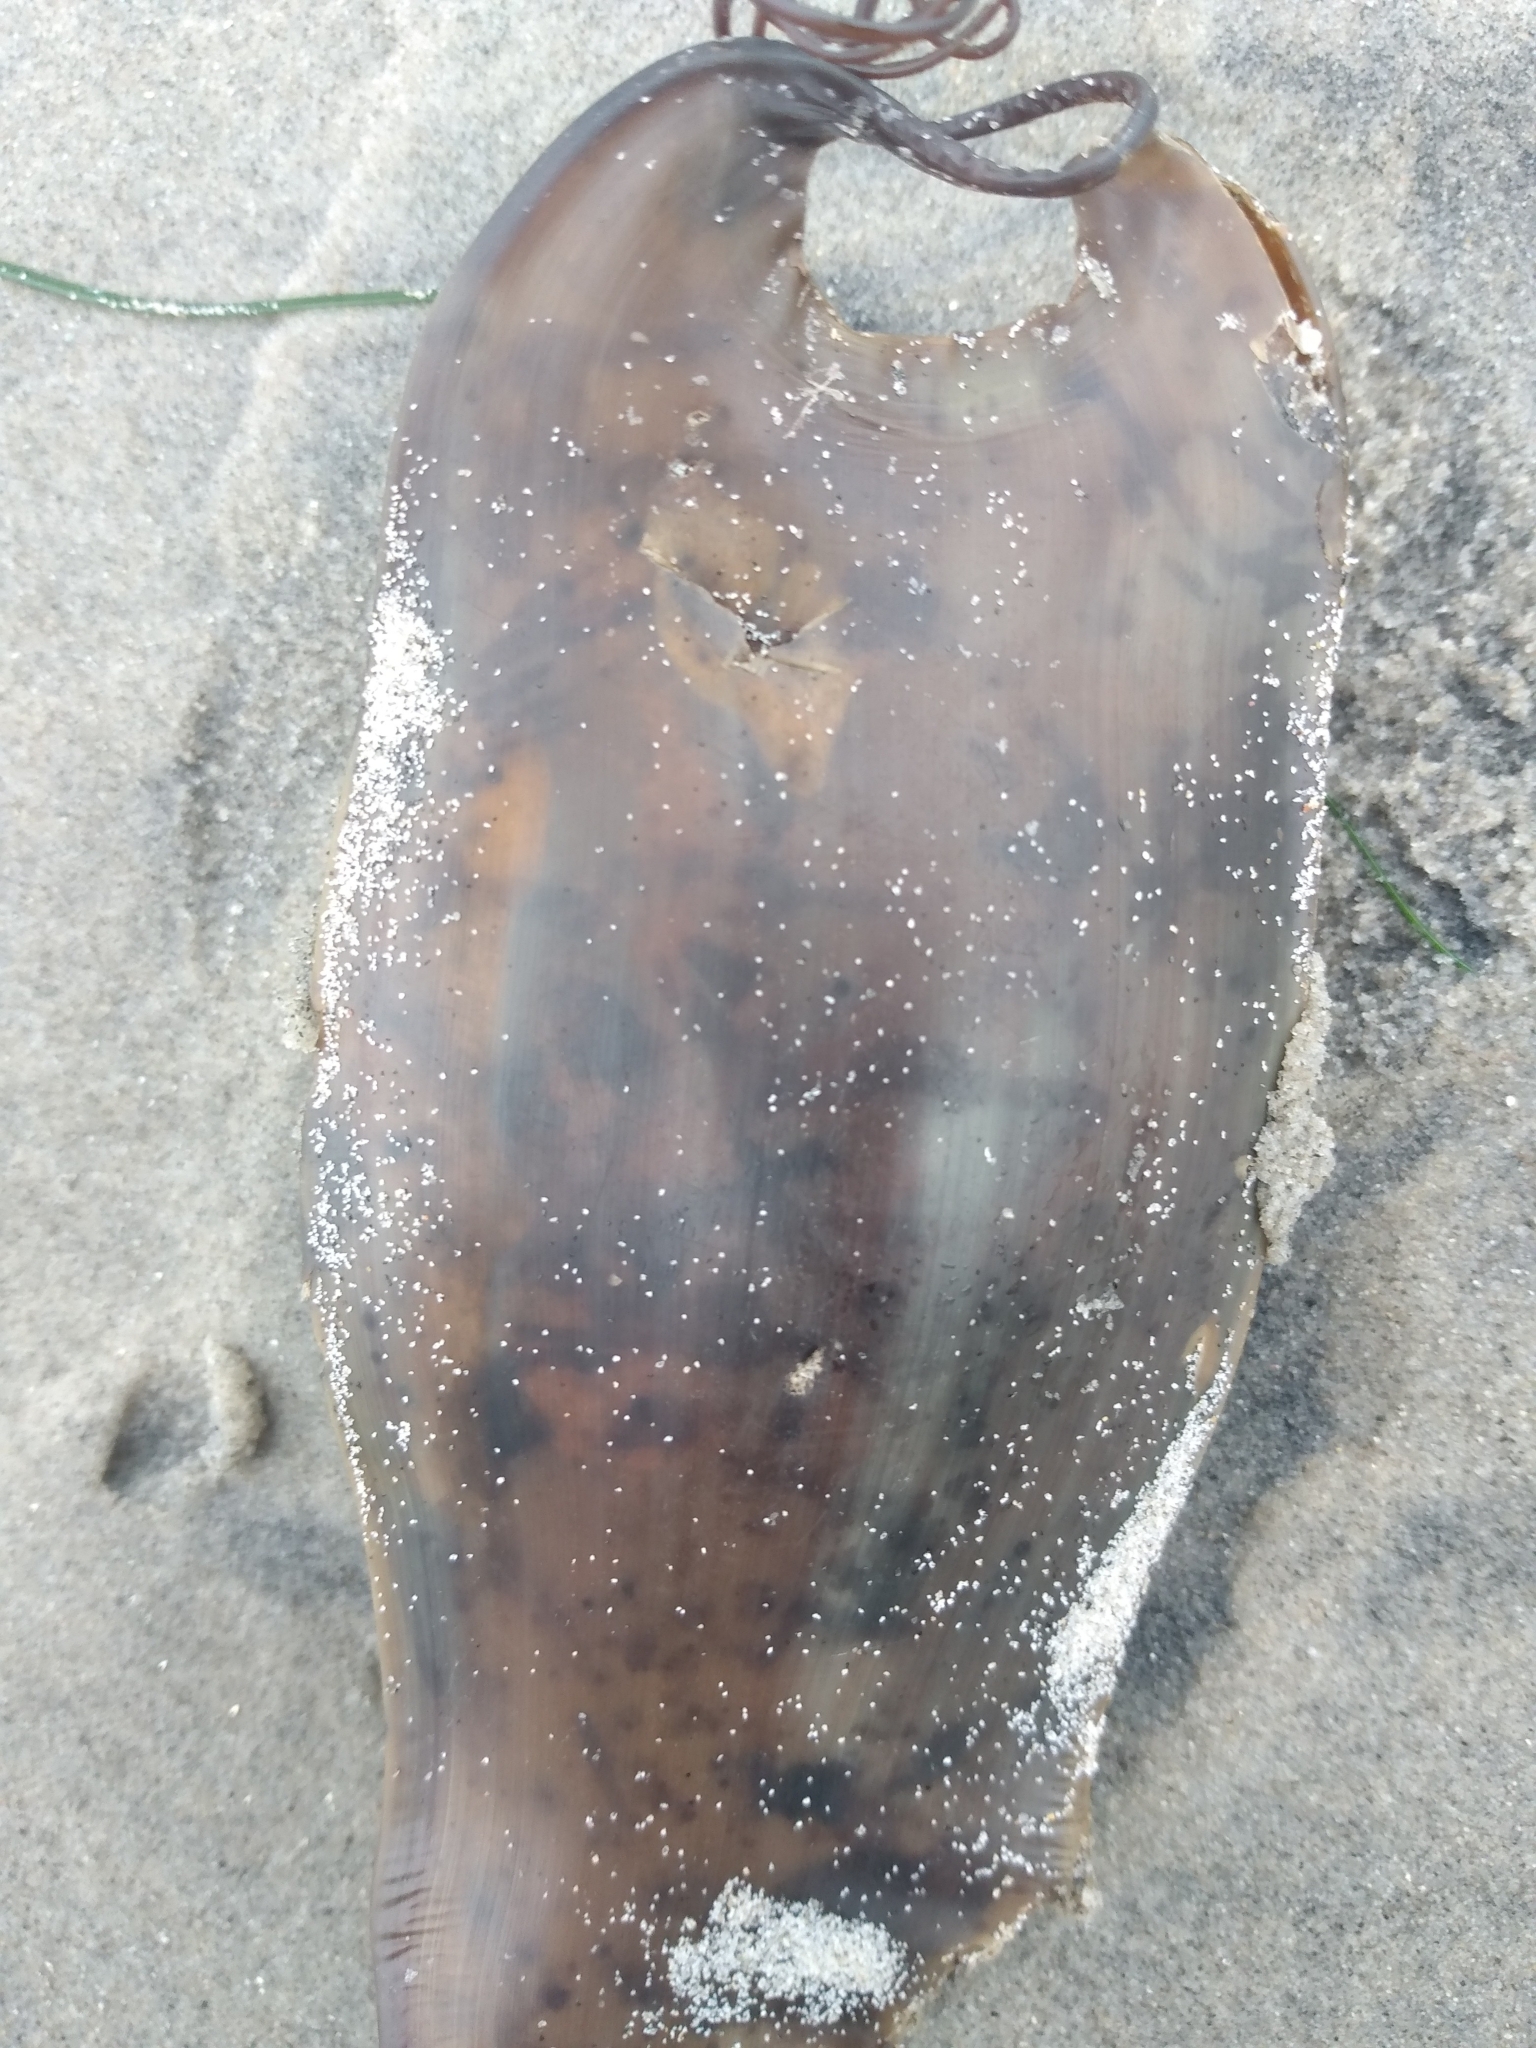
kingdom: Animalia
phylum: Chordata
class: Elasmobranchii
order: Carcharhiniformes
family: Scyliorhinidae
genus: Cephaloscyllium
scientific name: Cephaloscyllium ventriosum
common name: Swell shark
